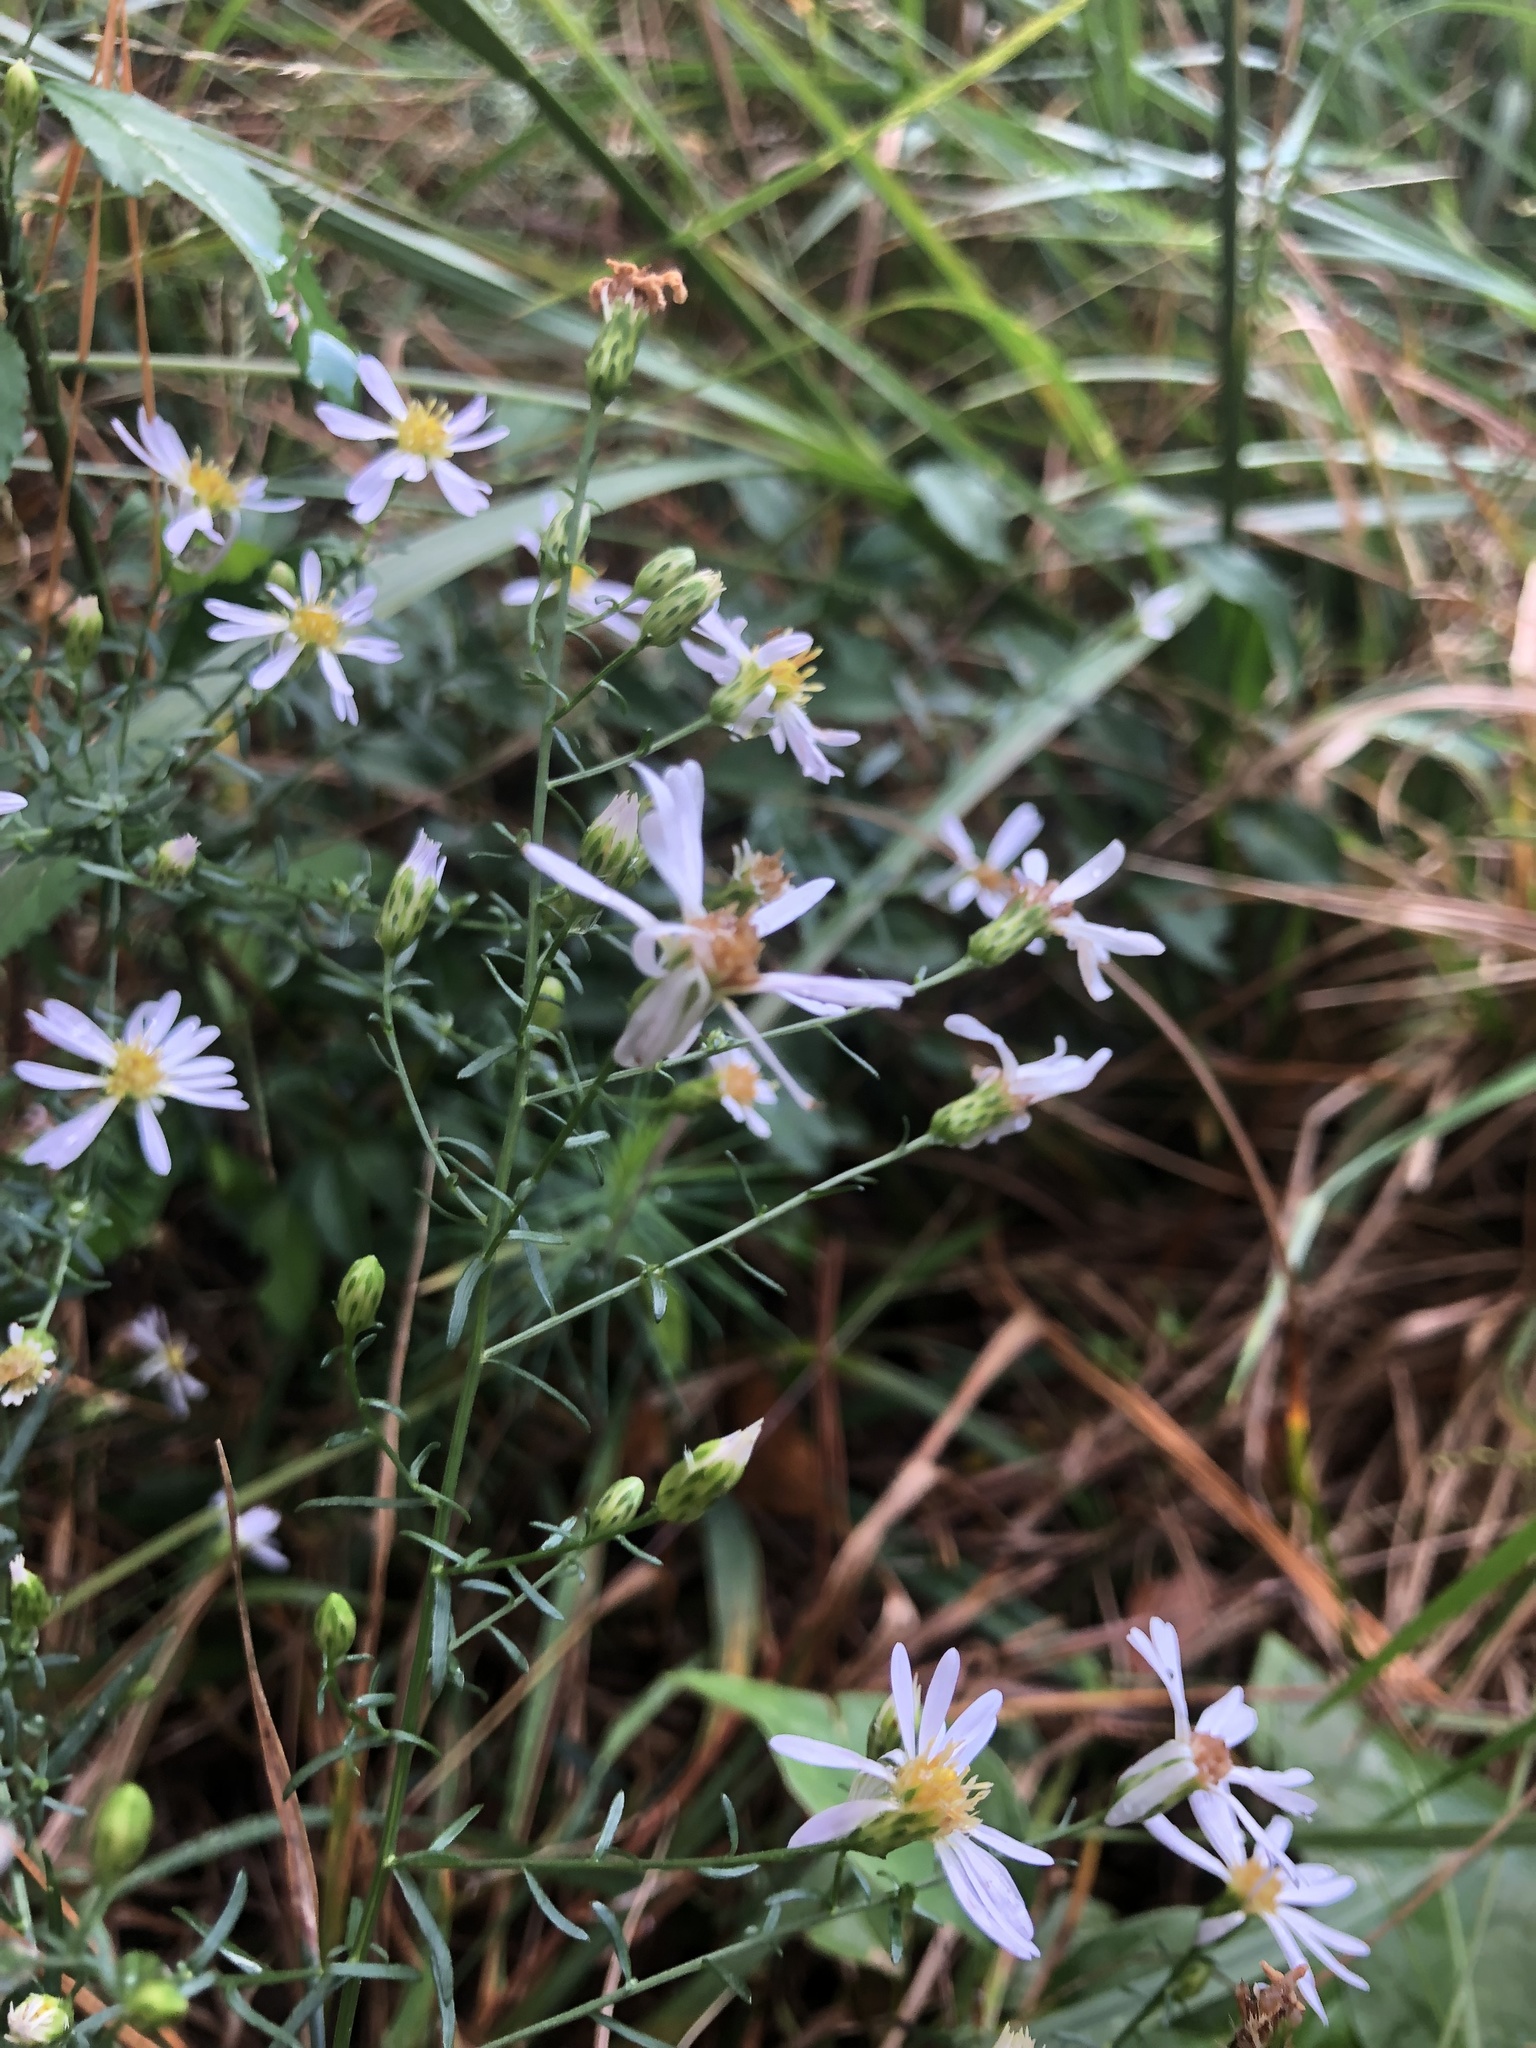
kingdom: Plantae
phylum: Tracheophyta
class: Magnoliopsida
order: Asterales
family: Asteraceae
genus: Symphyotrichum
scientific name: Symphyotrichum dumosum
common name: Bushy aster
